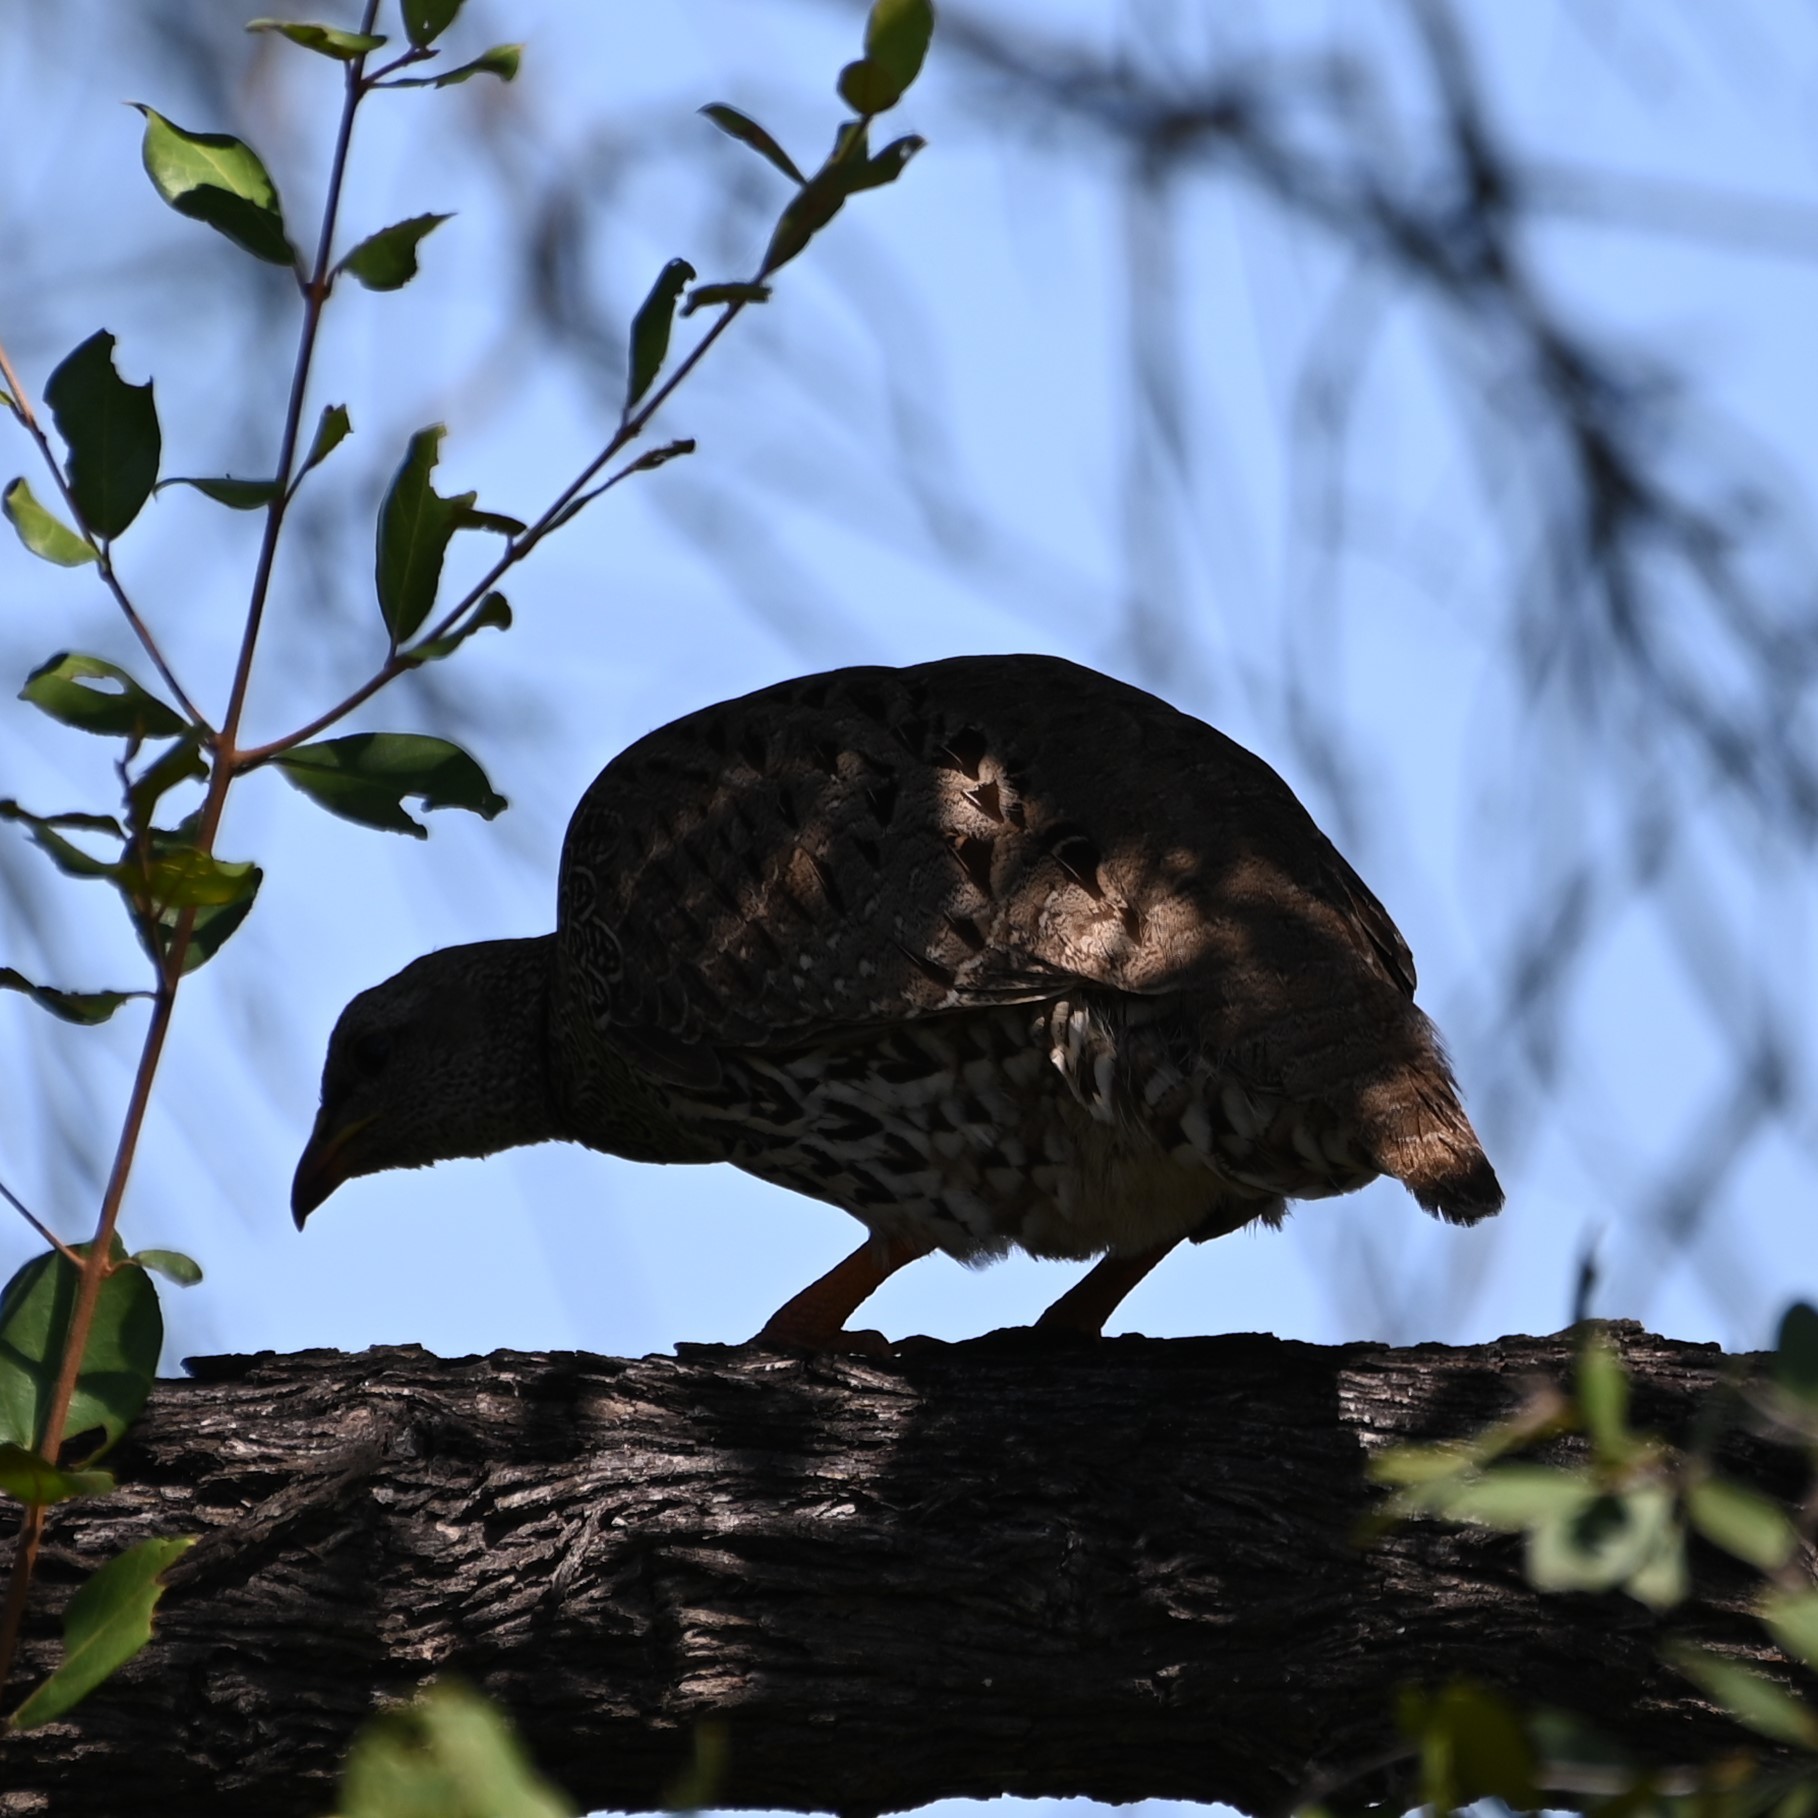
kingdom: Animalia
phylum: Chordata
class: Aves
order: Galliformes
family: Phasianidae
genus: Pternistis
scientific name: Pternistis natalensis
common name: Natal spurfowl
